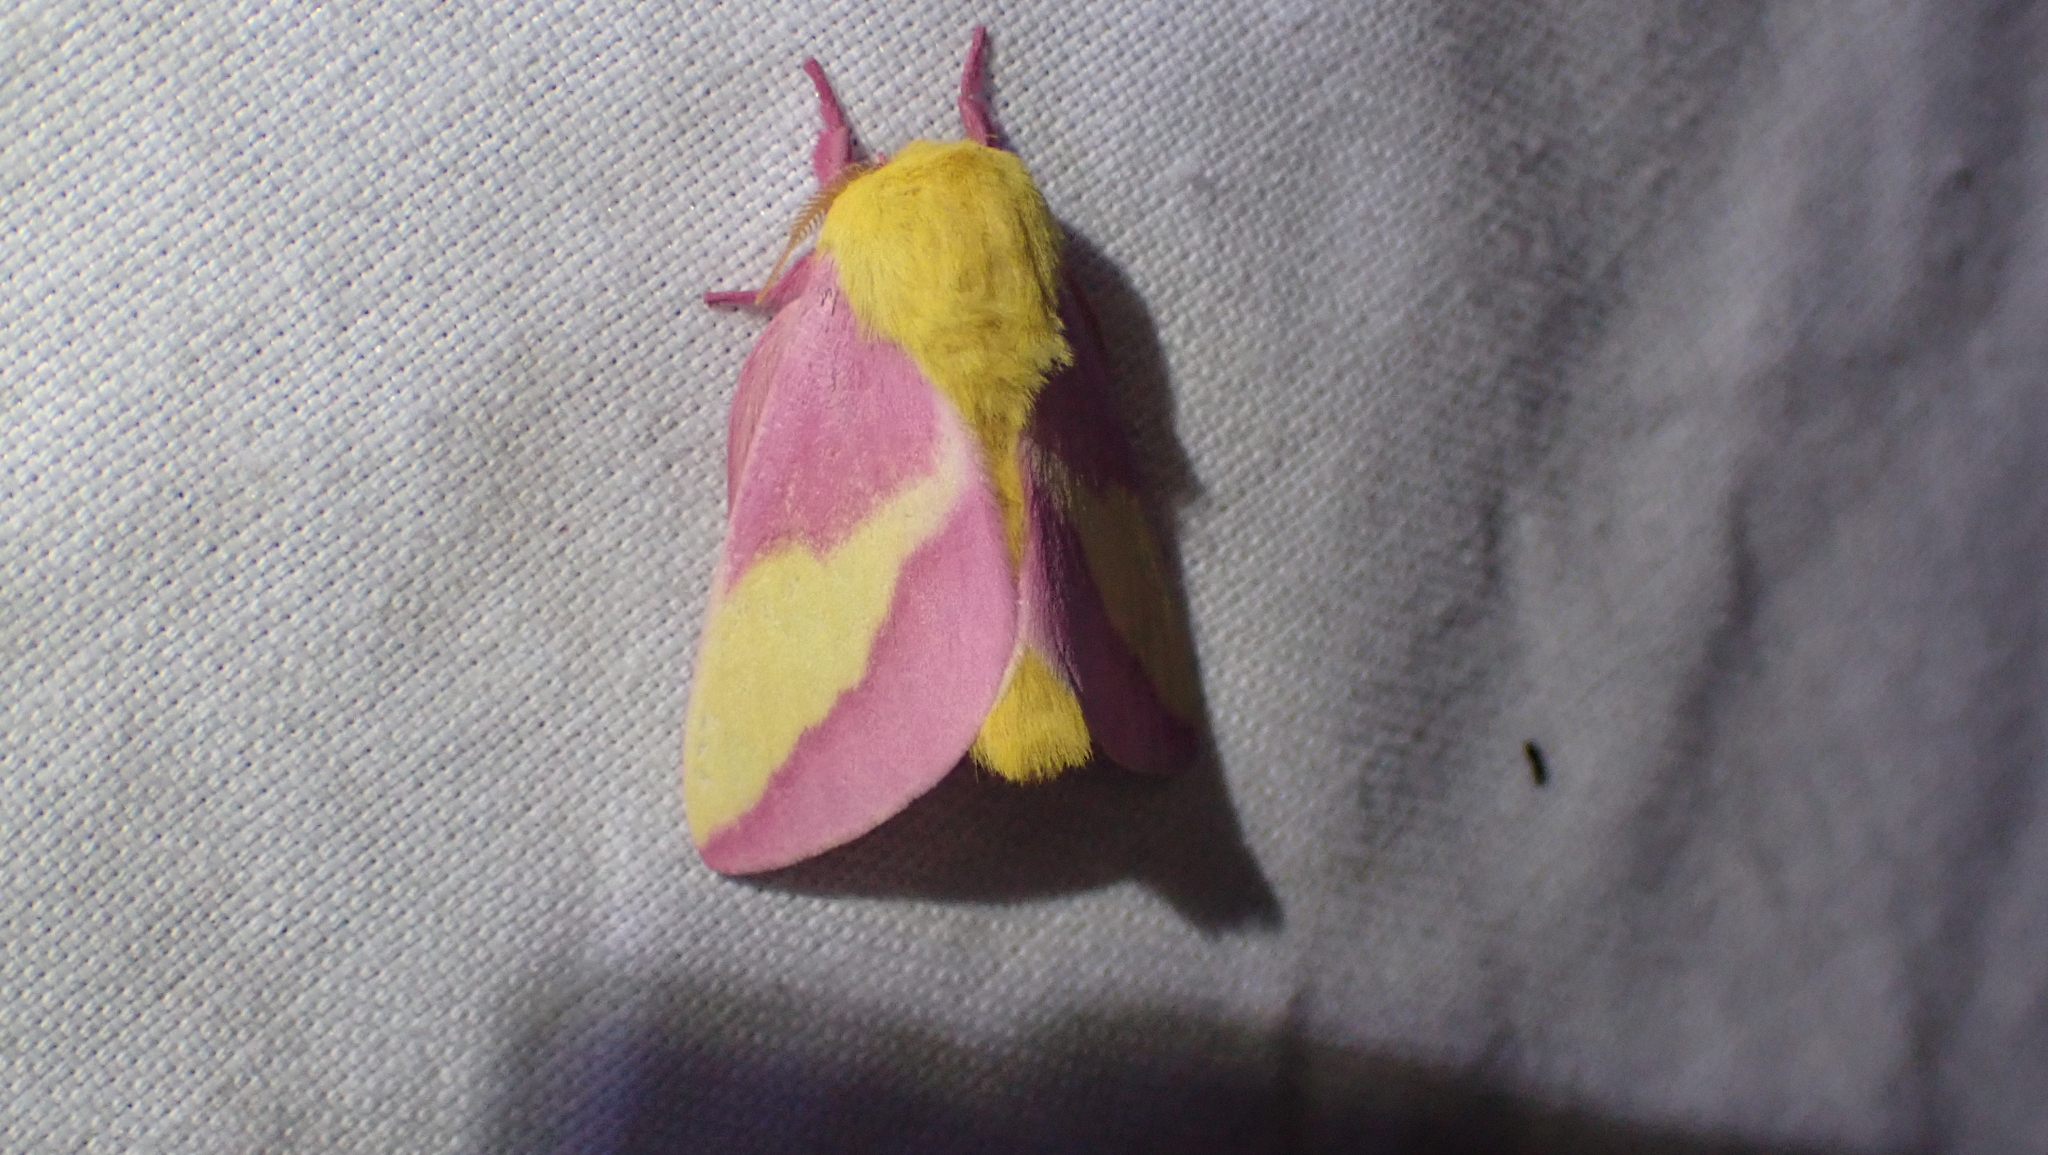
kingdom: Animalia
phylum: Arthropoda
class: Insecta
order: Lepidoptera
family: Saturniidae
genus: Dryocampa
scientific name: Dryocampa rubicunda
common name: Rosy maple moth
